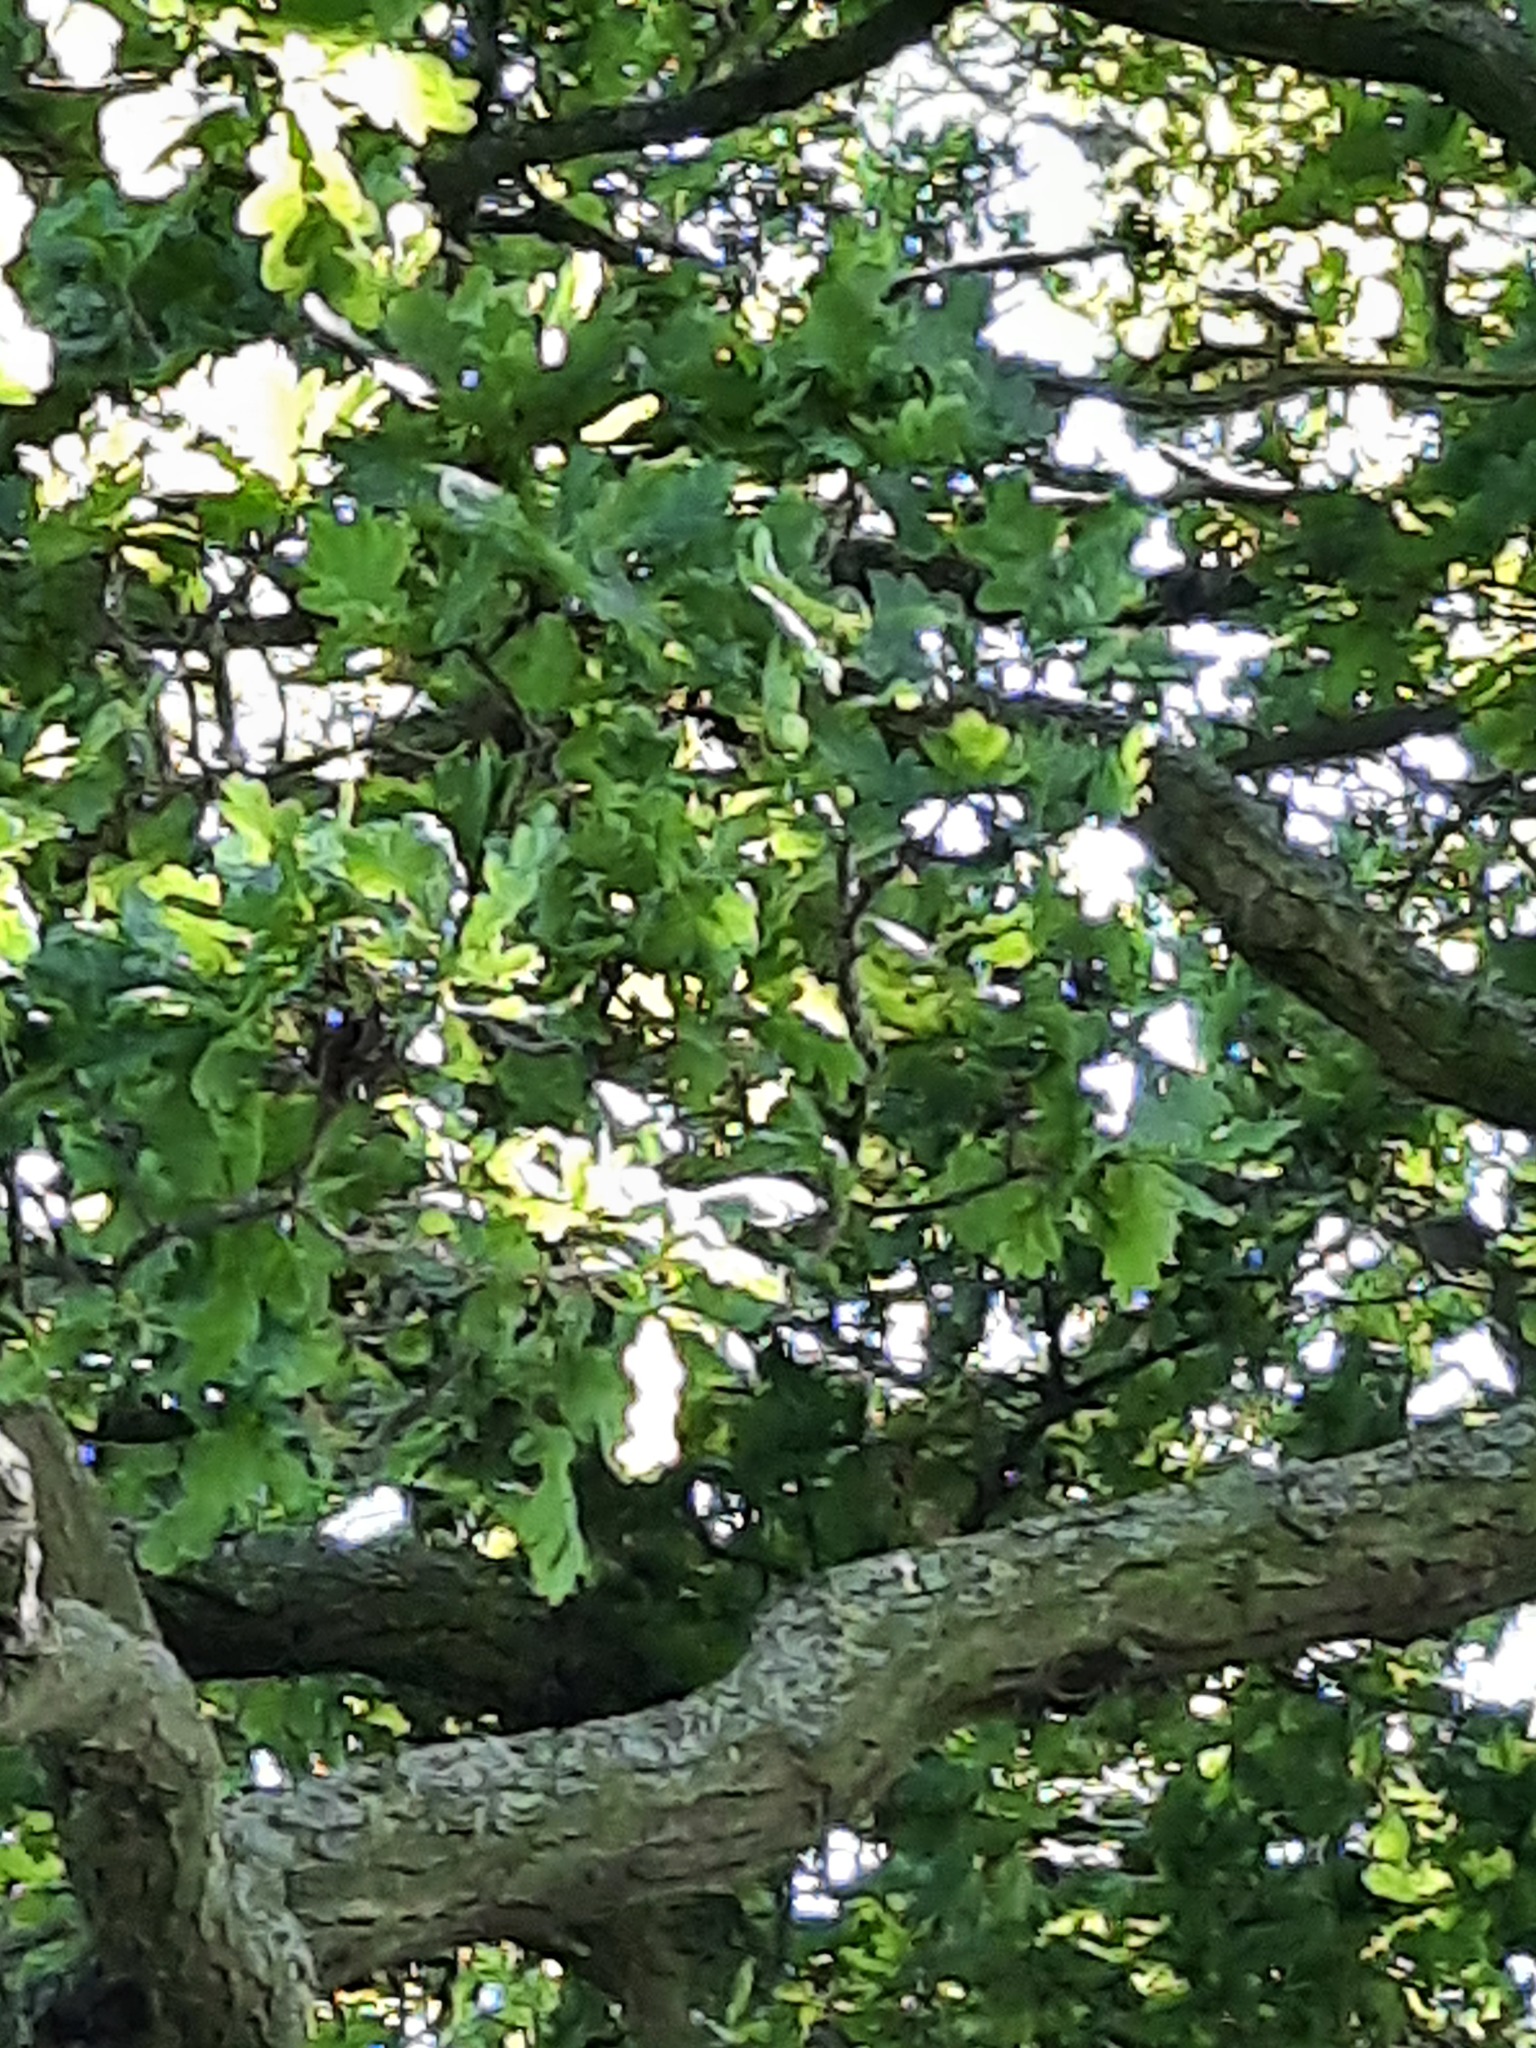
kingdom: Animalia
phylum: Chordata
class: Aves
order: Passeriformes
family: Turdidae
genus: Turdus
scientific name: Turdus merula
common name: Common blackbird
